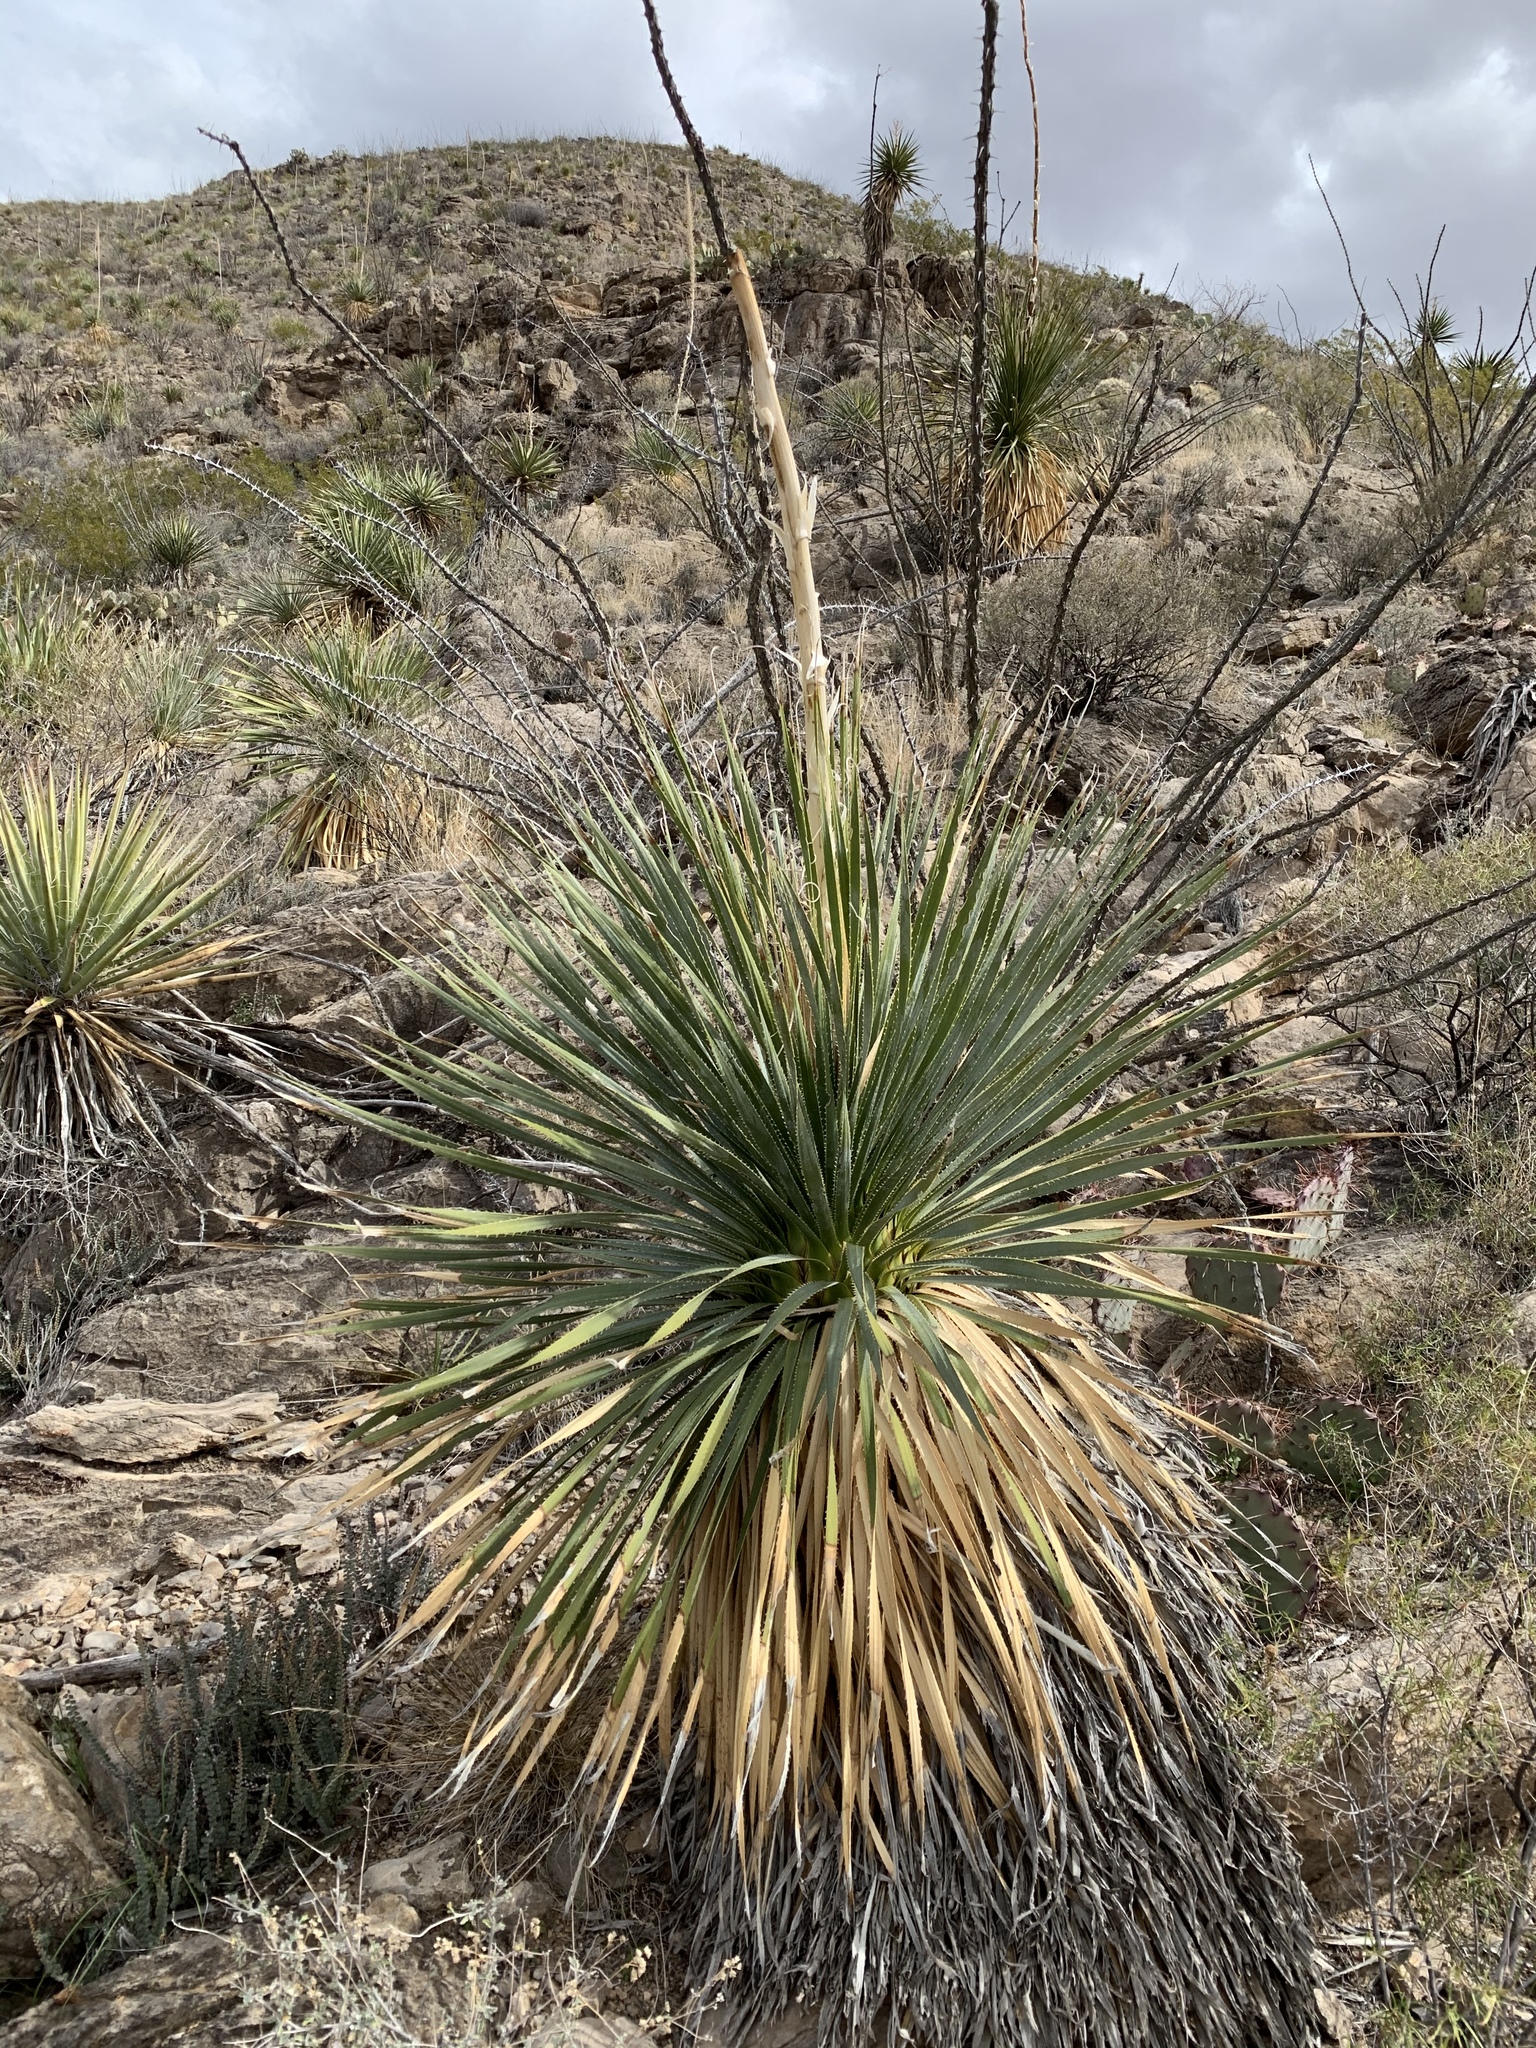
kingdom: Plantae
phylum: Tracheophyta
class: Liliopsida
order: Asparagales
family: Asparagaceae
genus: Dasylirion
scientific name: Dasylirion wheeleri
